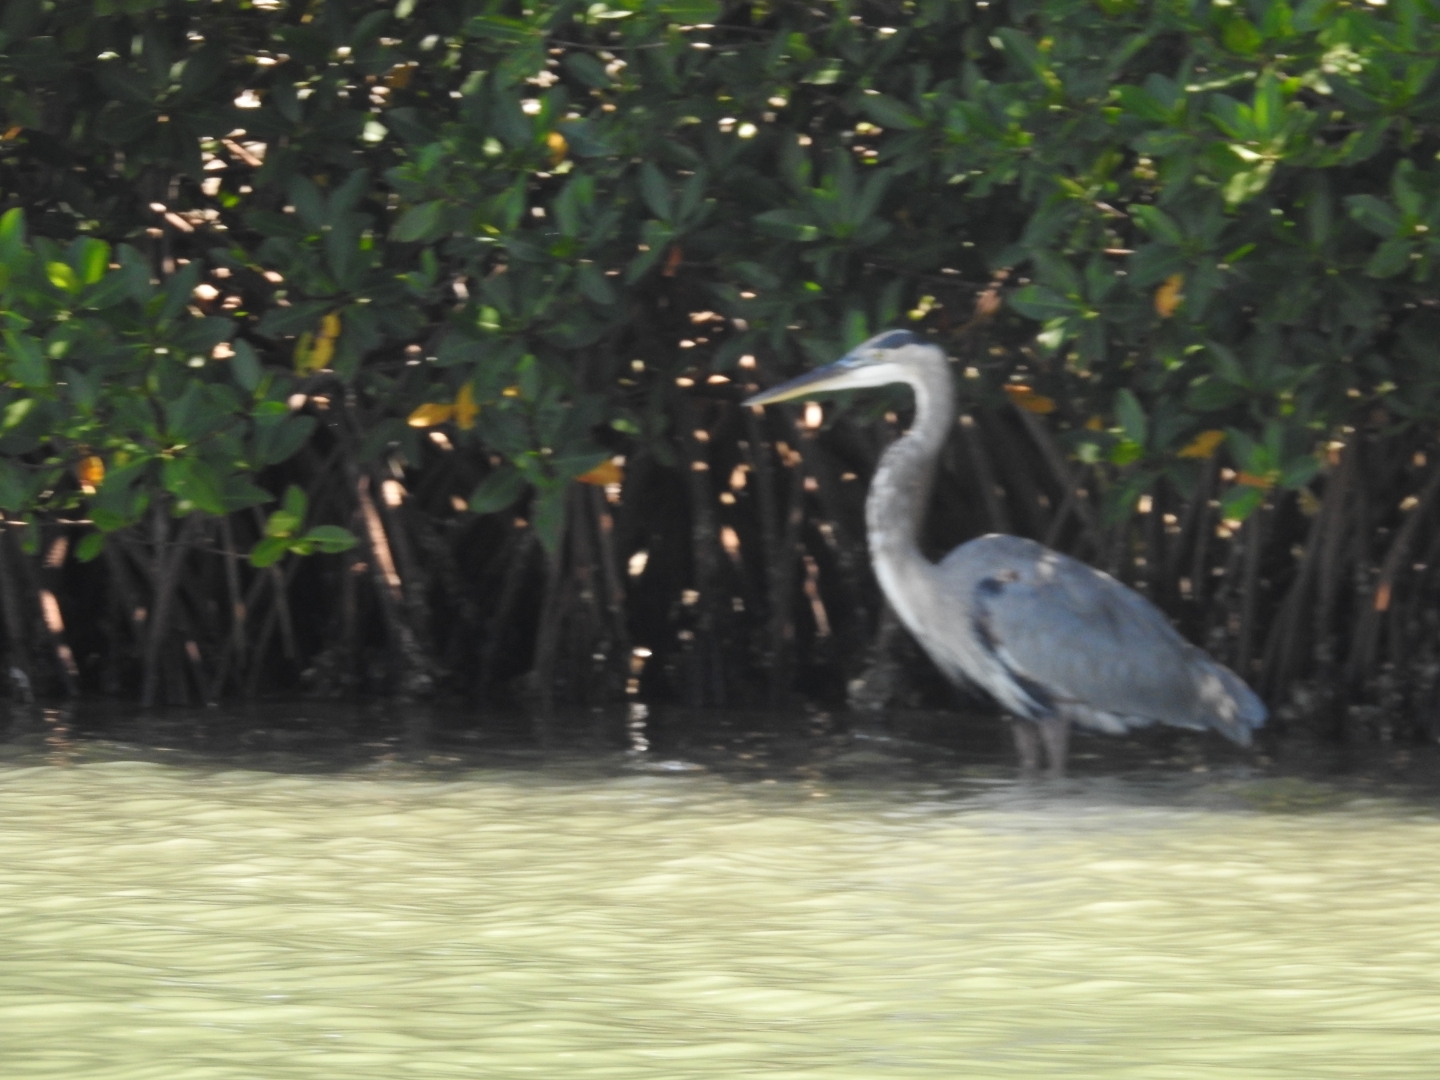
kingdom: Animalia
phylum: Chordata
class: Aves
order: Pelecaniformes
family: Ardeidae
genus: Ardea
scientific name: Ardea herodias
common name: Great blue heron
